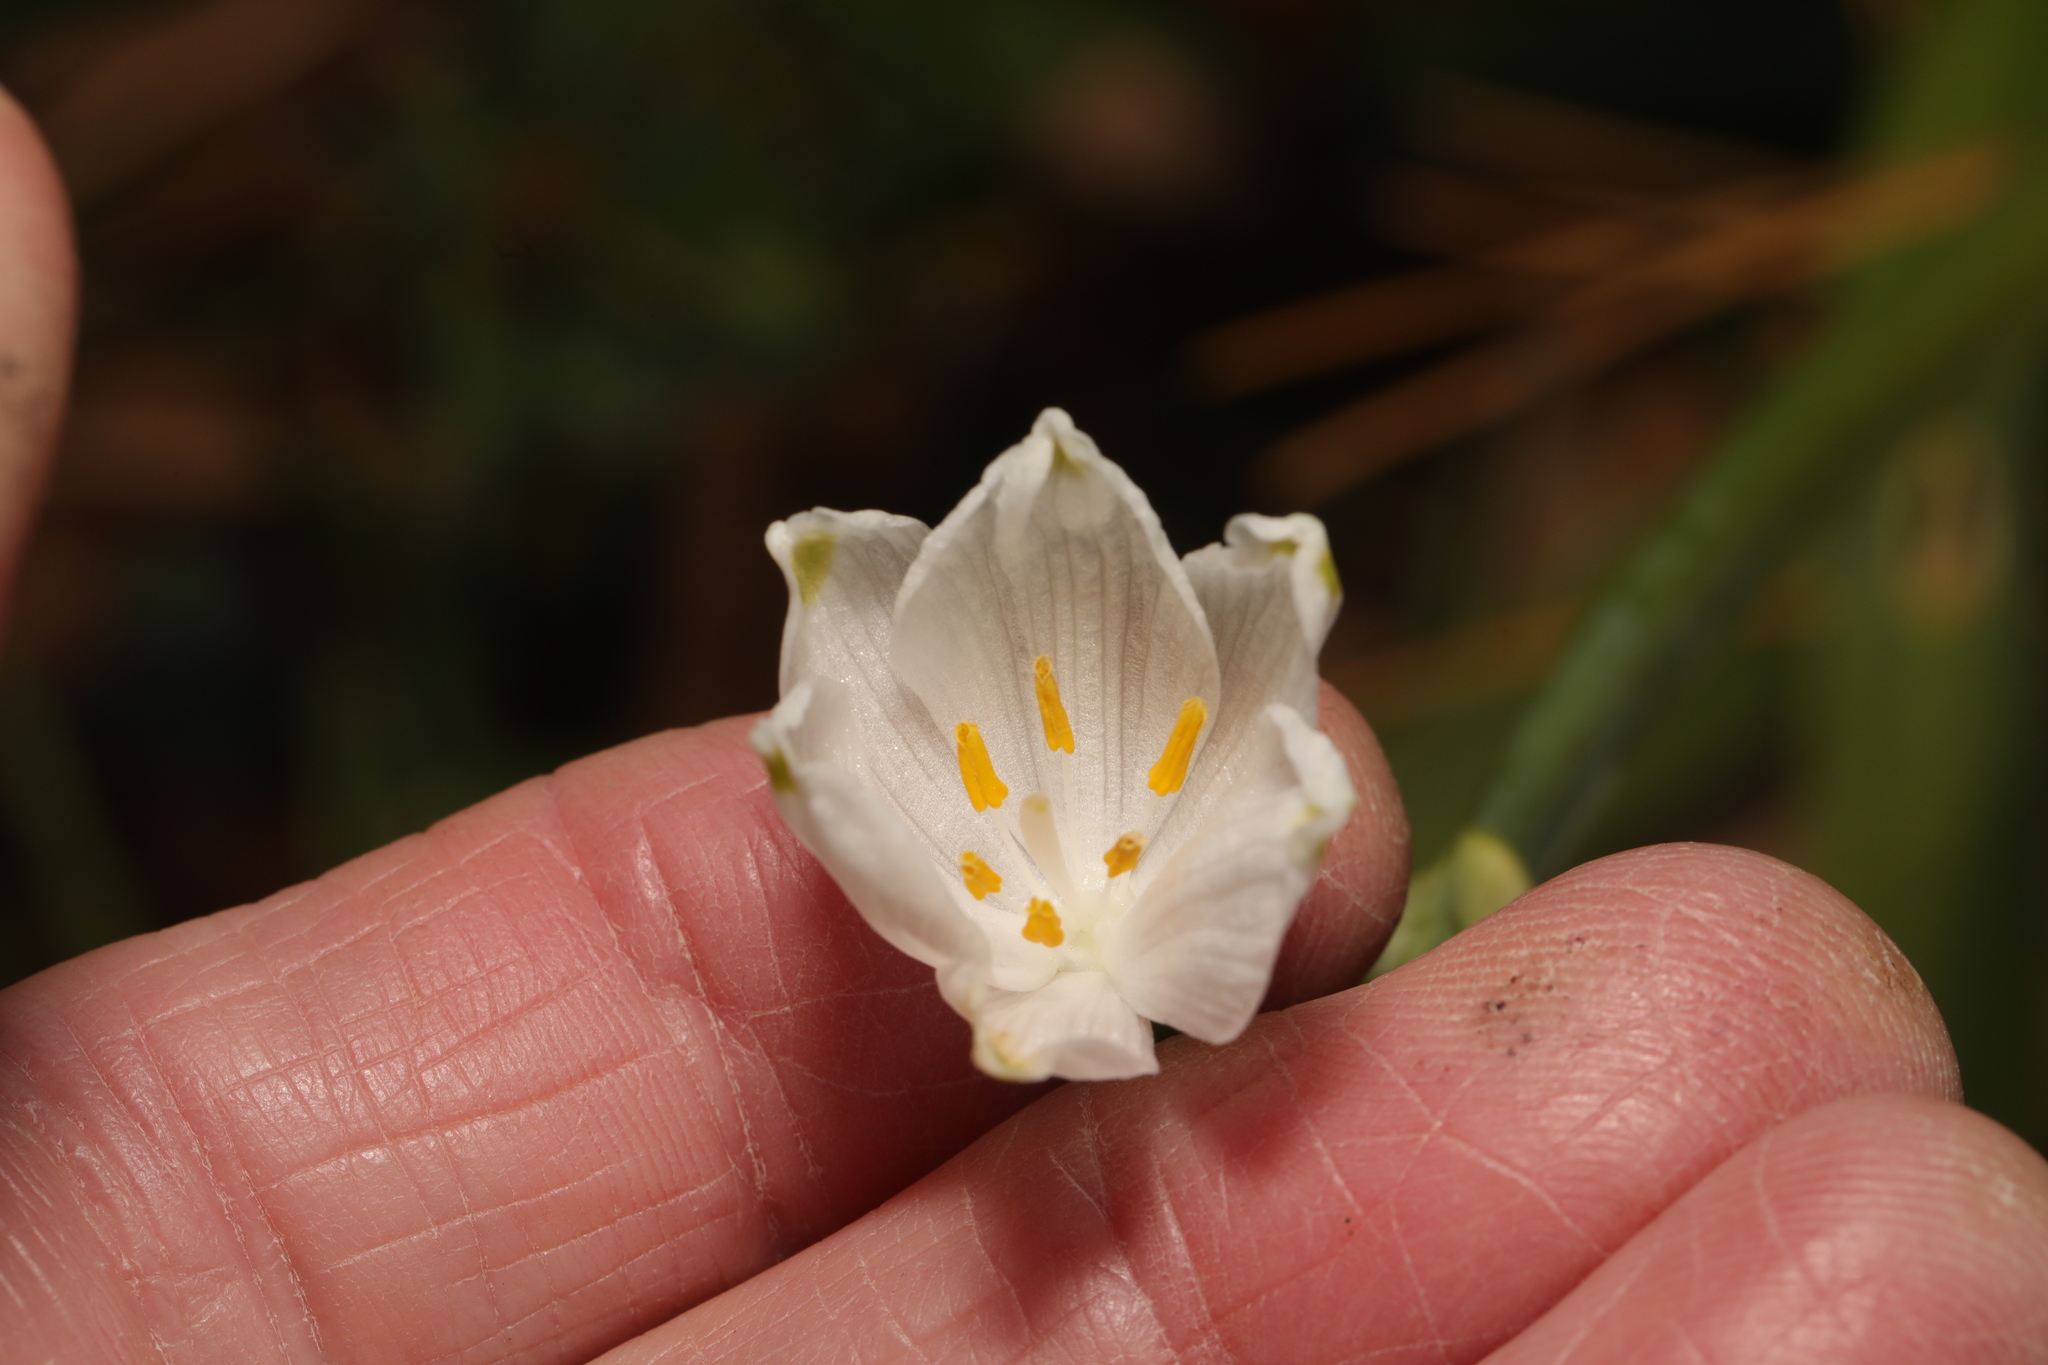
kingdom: Plantae
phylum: Tracheophyta
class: Liliopsida
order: Asparagales
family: Amaryllidaceae
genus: Leucojum
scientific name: Leucojum aestivum
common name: Summer snowflake
